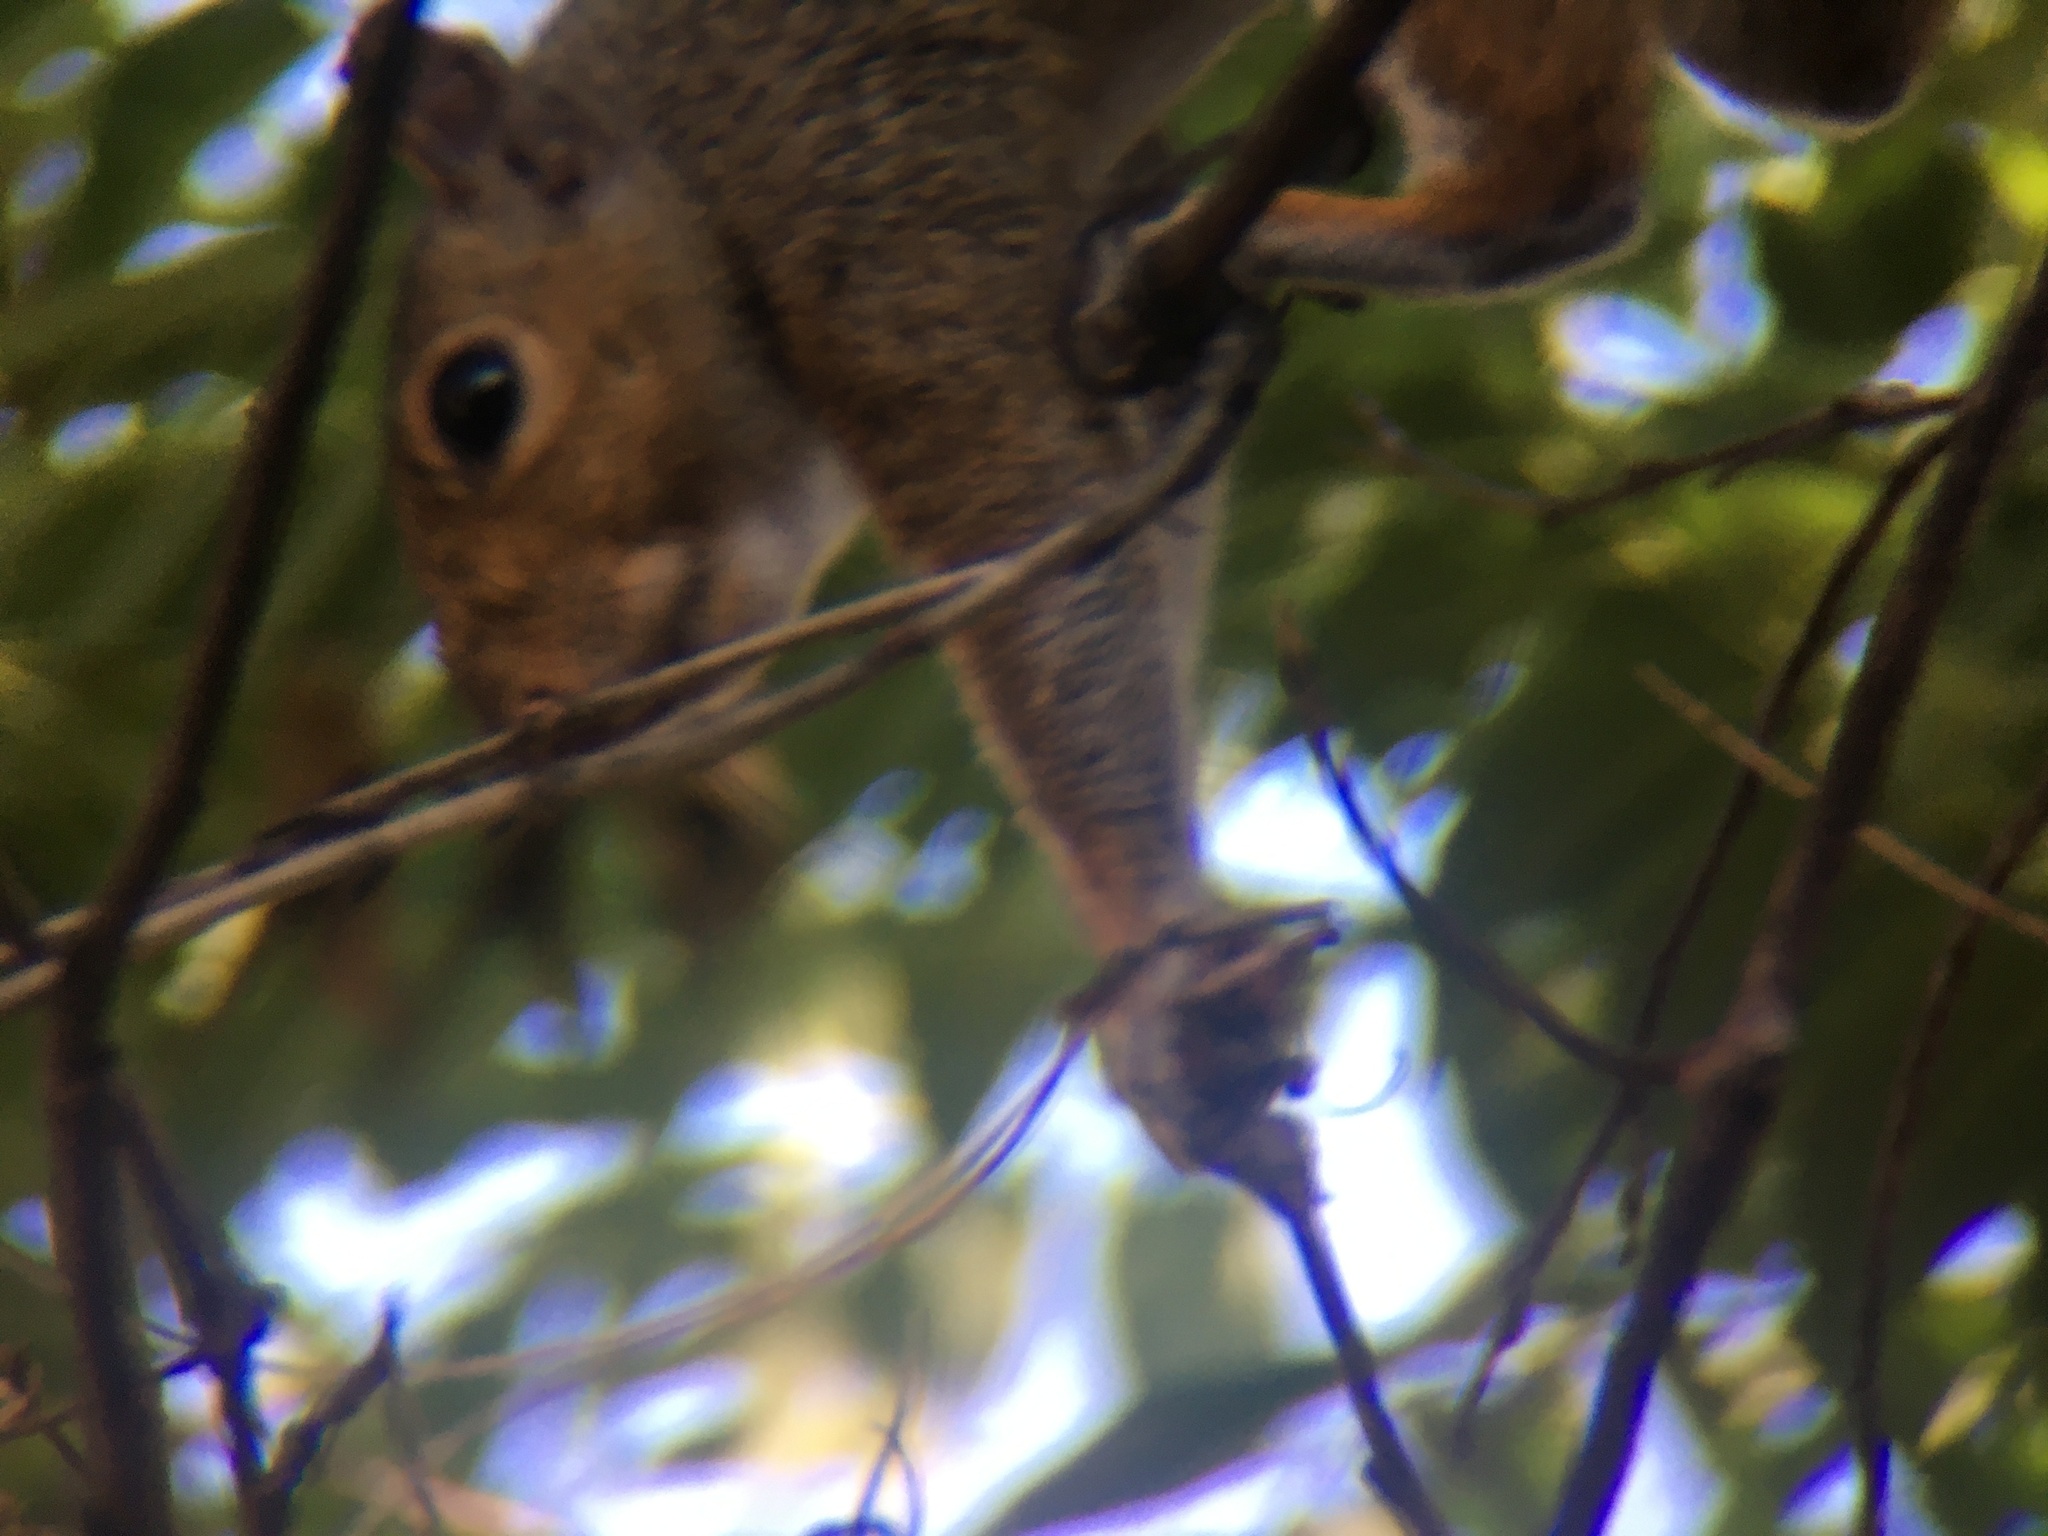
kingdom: Animalia
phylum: Chordata
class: Mammalia
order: Rodentia
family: Sciuridae
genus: Sciurus
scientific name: Sciurus carolinensis
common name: Eastern gray squirrel
